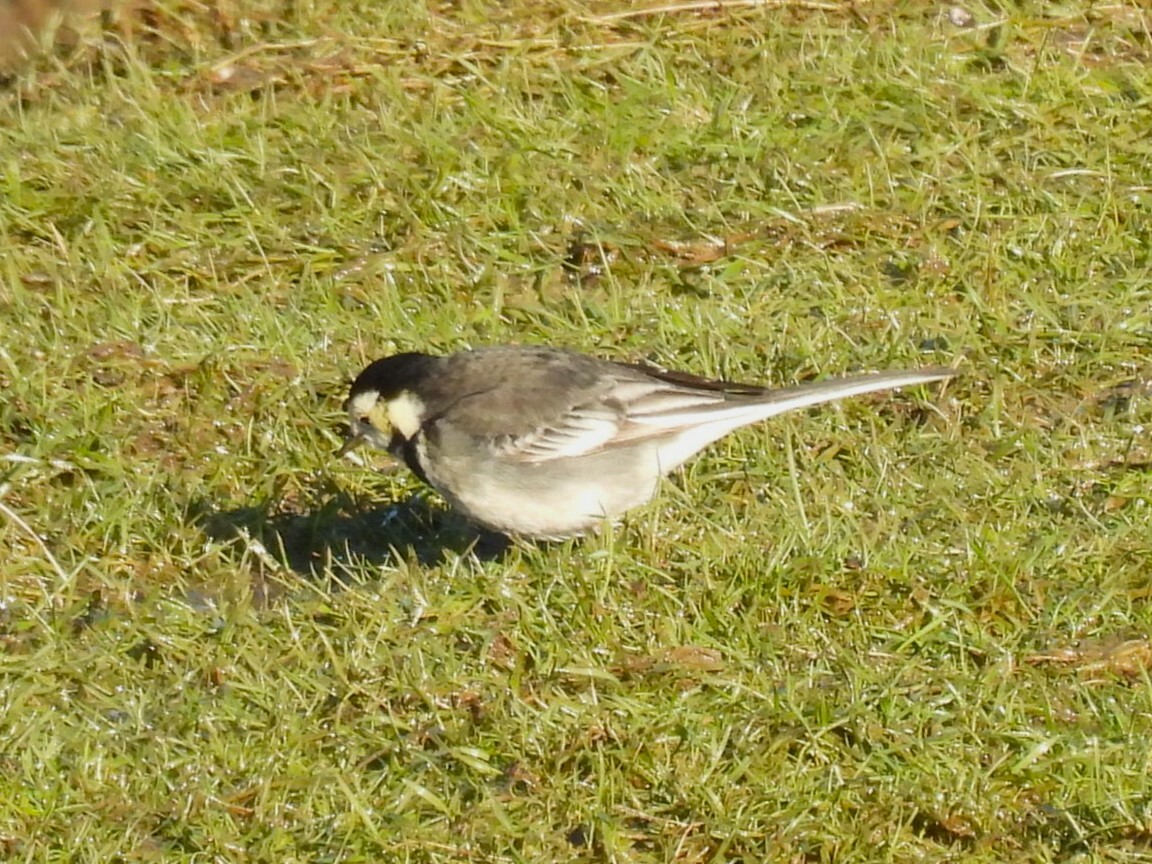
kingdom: Animalia
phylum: Chordata
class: Aves
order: Passeriformes
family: Motacillidae
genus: Motacilla
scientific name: Motacilla alba
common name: White wagtail
